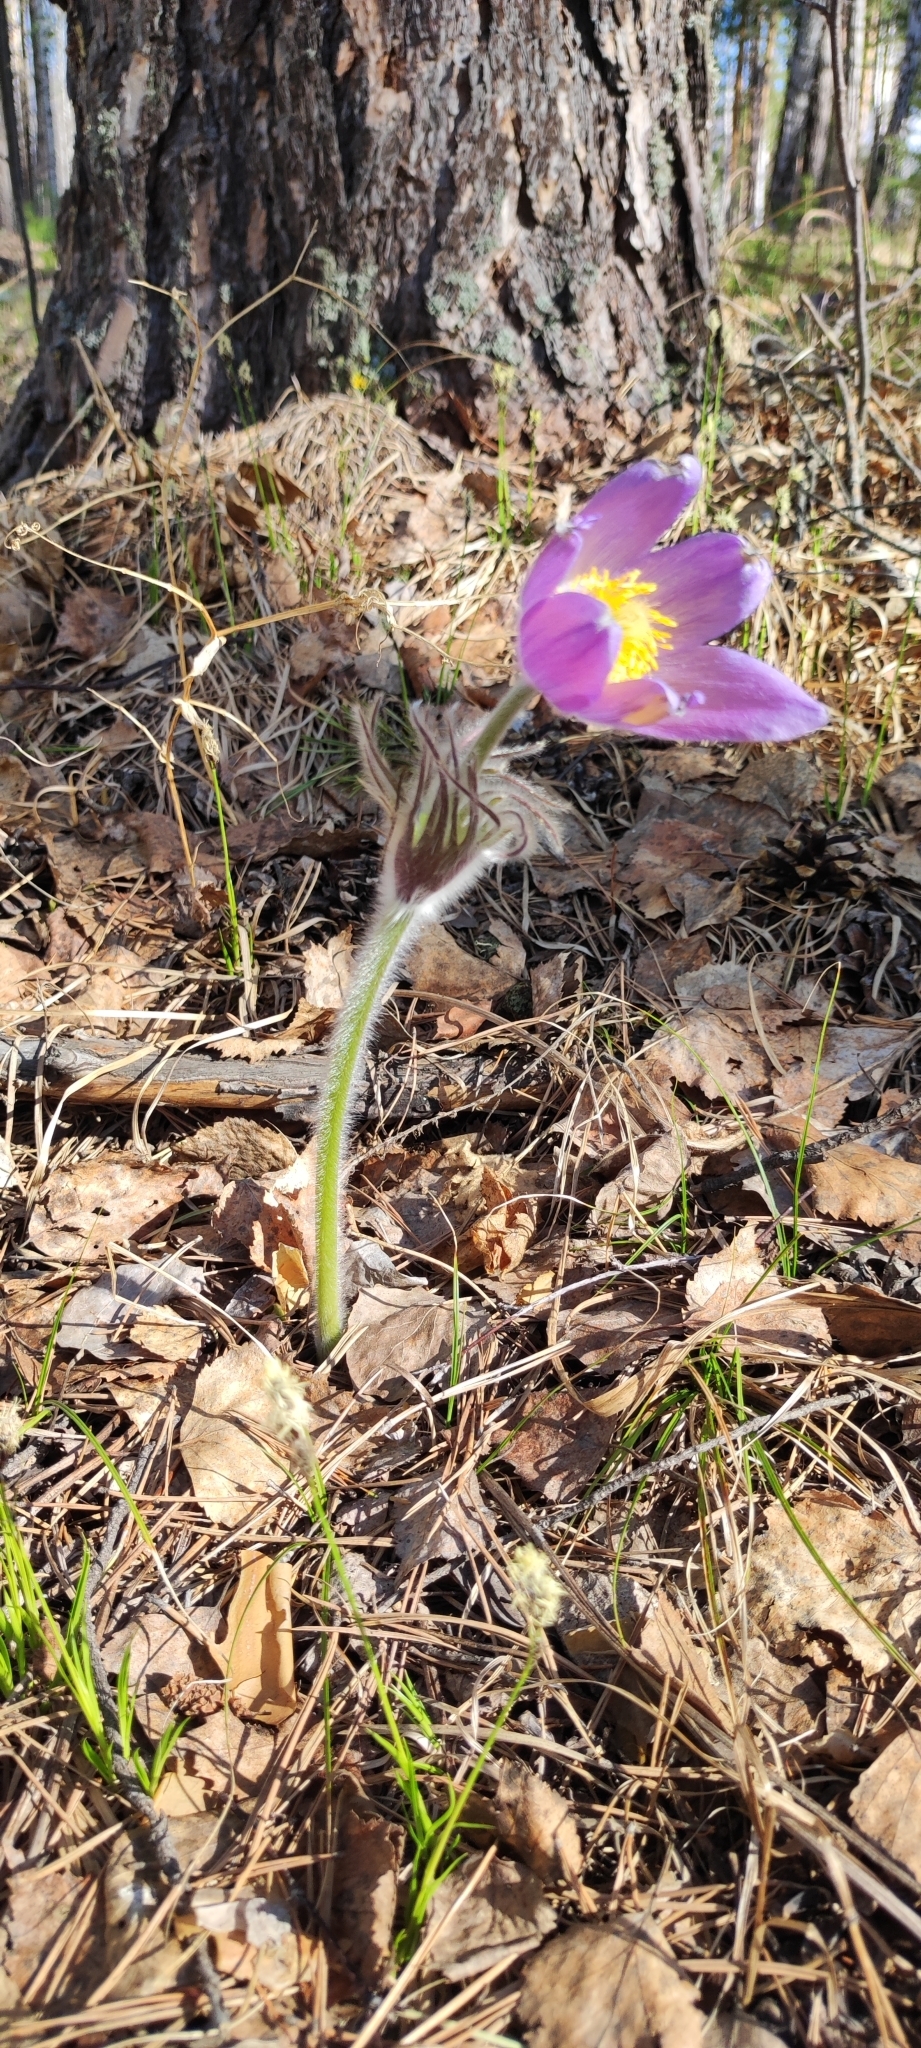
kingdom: Plantae
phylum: Tracheophyta
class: Magnoliopsida
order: Ranunculales
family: Ranunculaceae
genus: Pulsatilla
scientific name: Pulsatilla patens
